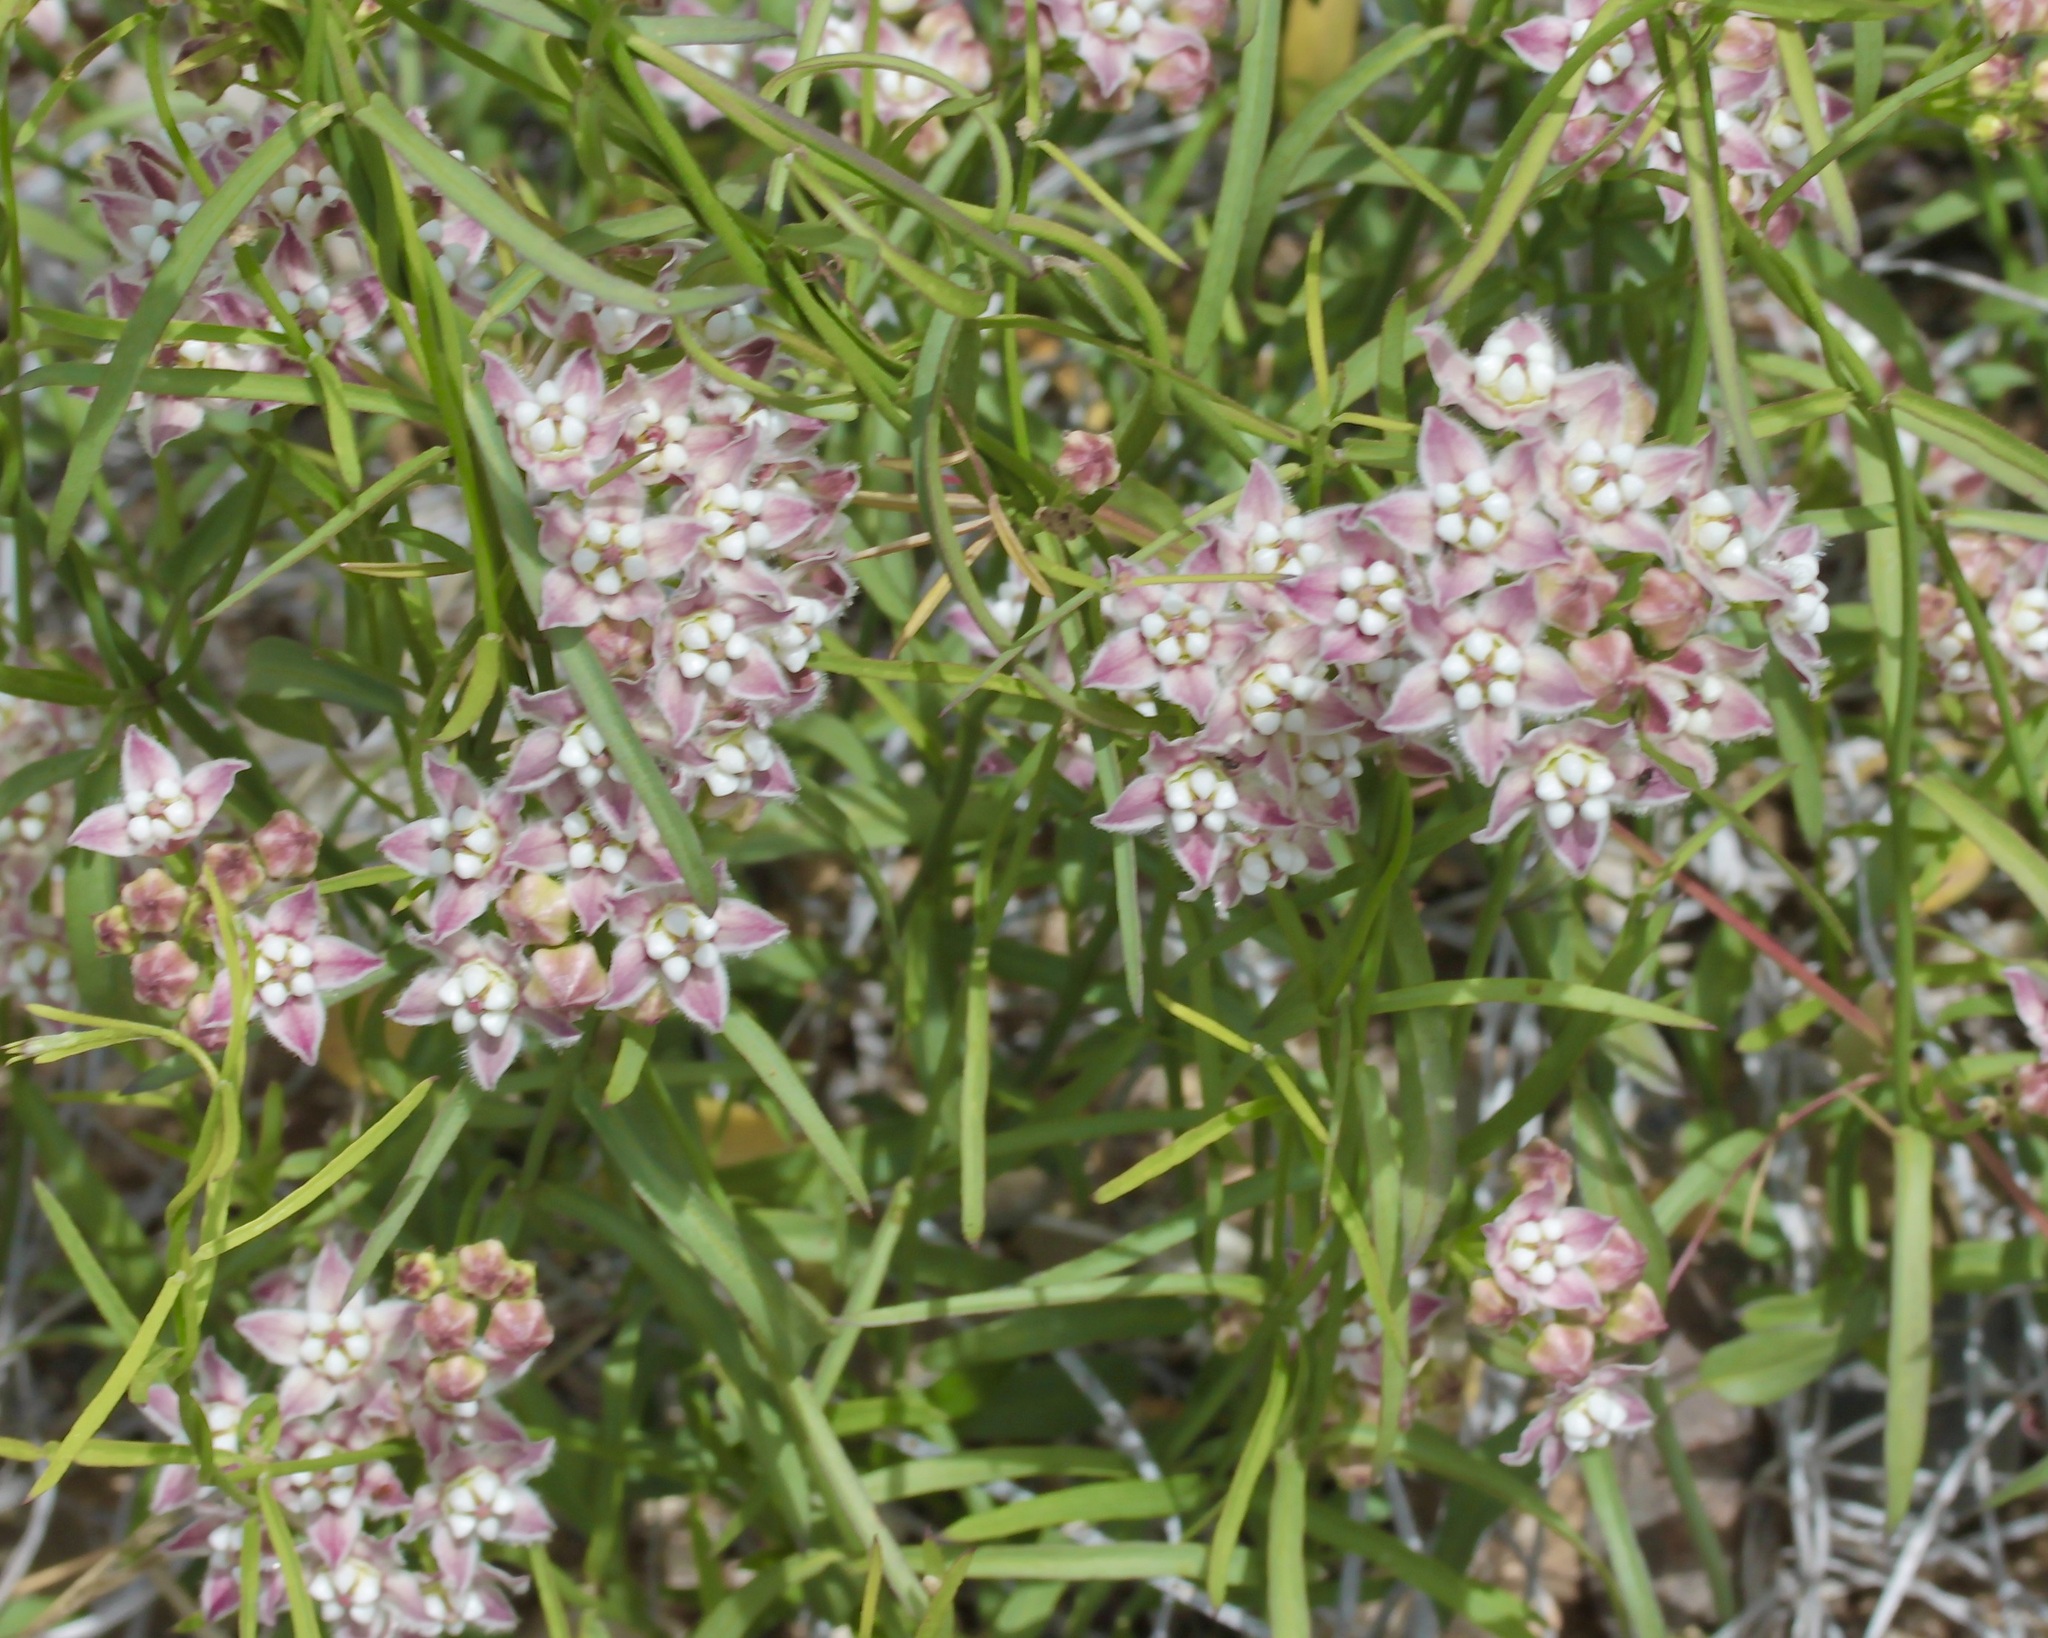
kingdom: Plantae
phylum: Tracheophyta
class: Magnoliopsida
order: Gentianales
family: Apocynaceae
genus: Funastrum
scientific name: Funastrum heterophyllum
